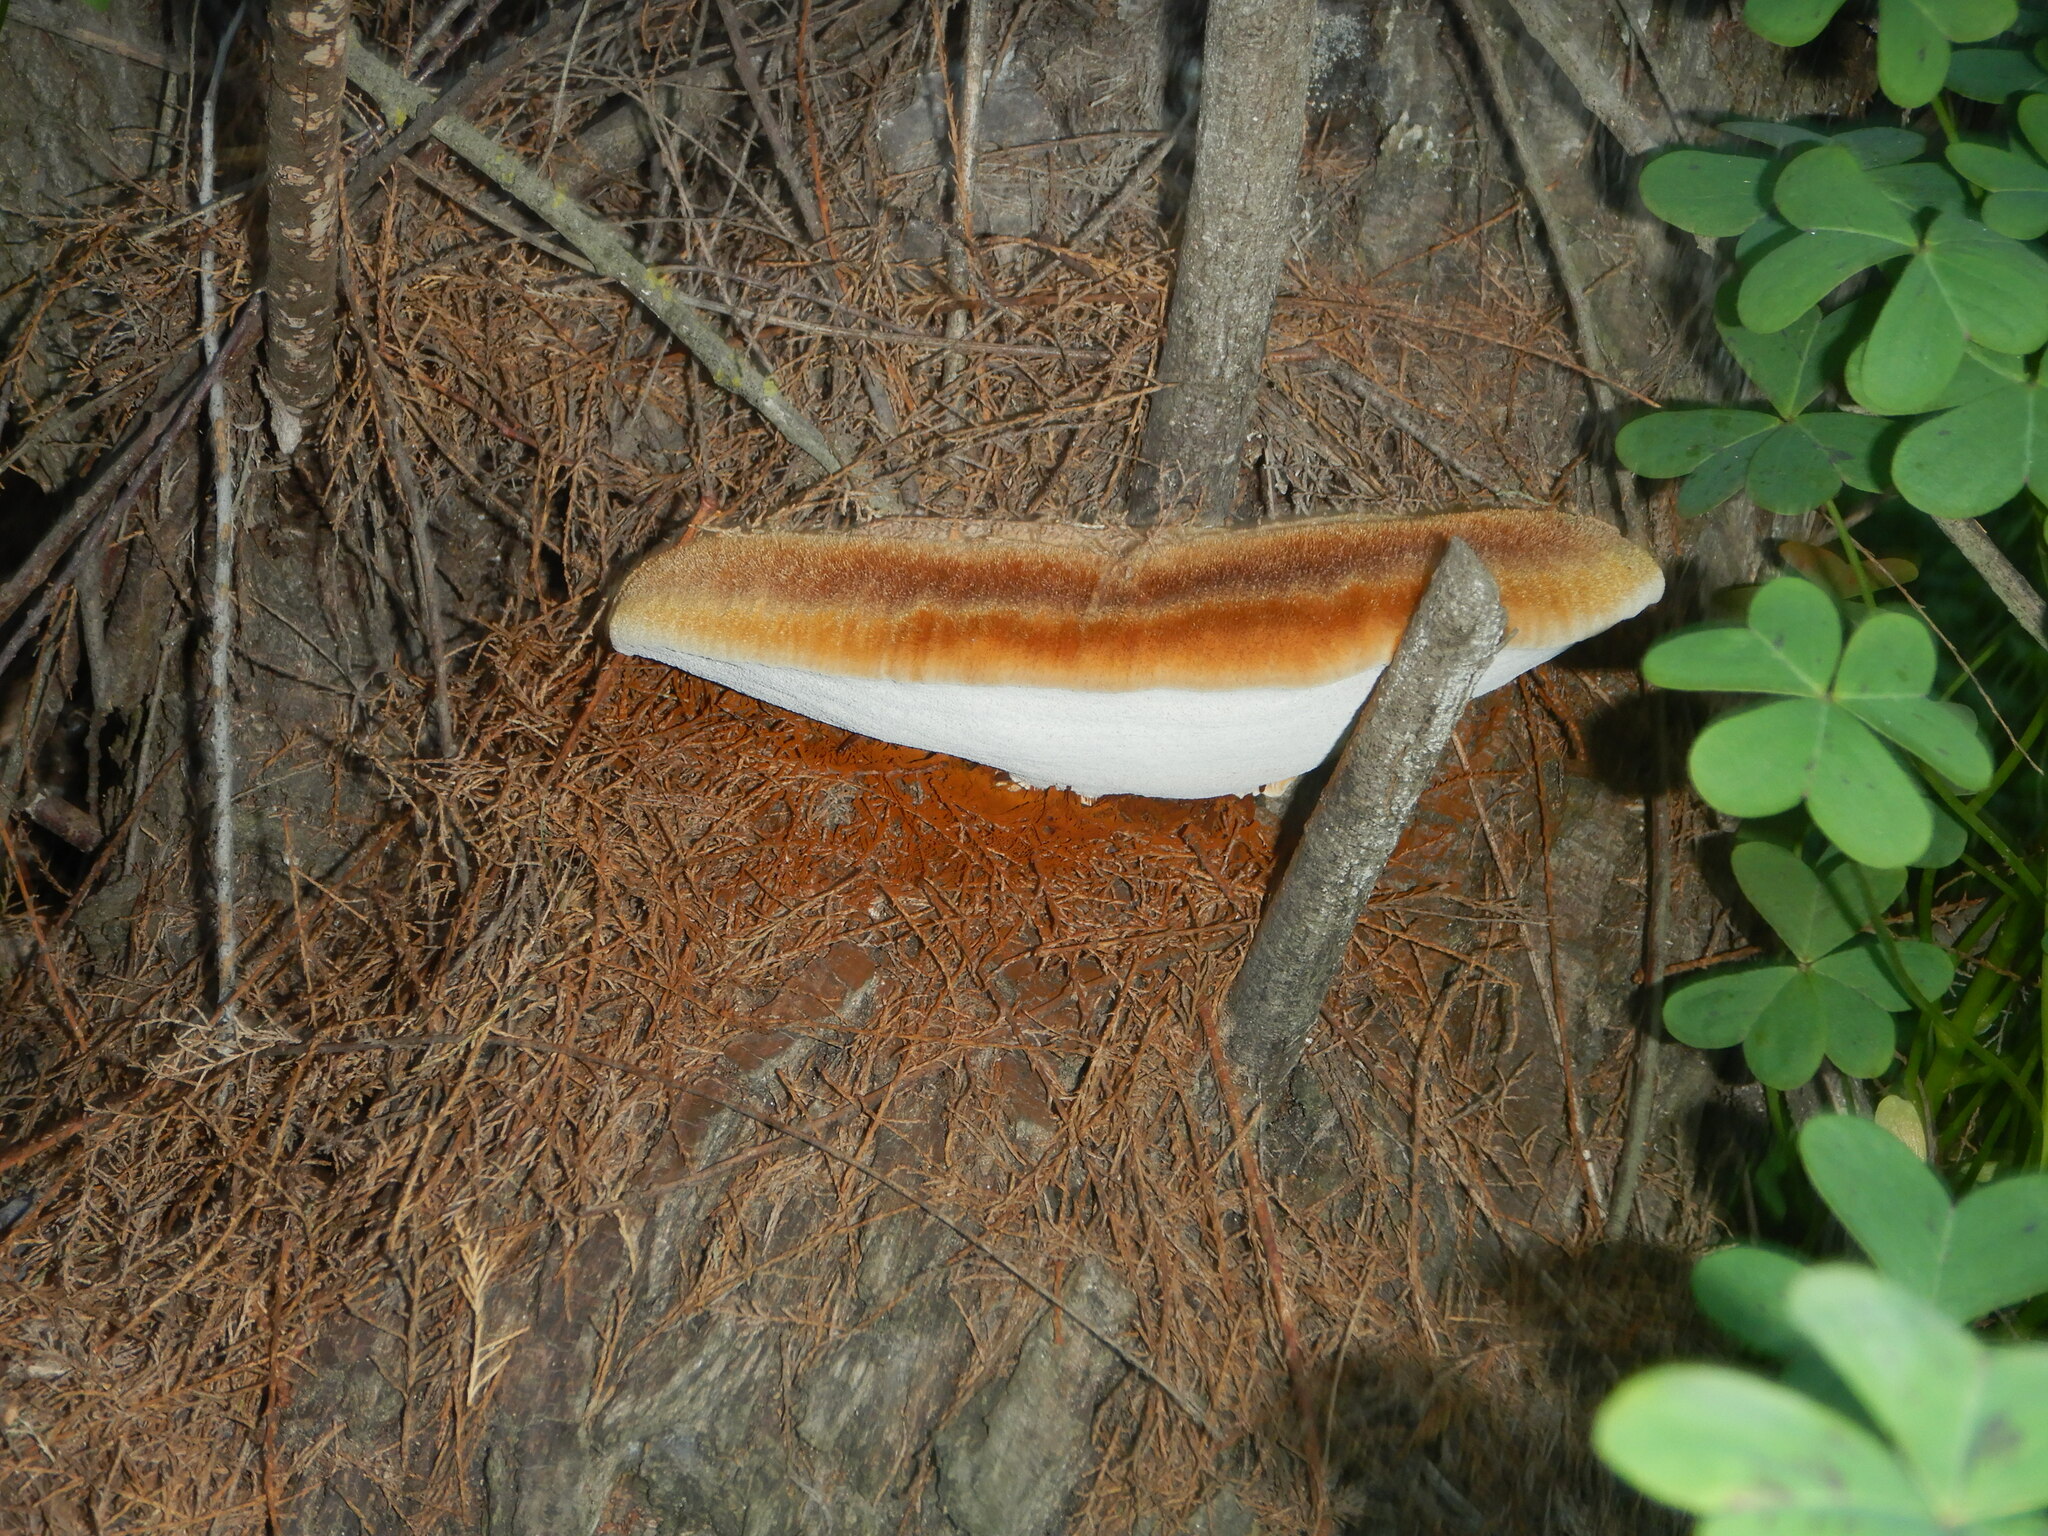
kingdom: Fungi
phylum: Basidiomycota
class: Agaricomycetes
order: Hymenochaetales
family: Hymenochaetaceae
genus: Inonotus
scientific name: Inonotus hispidus
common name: Shaggy bracket
